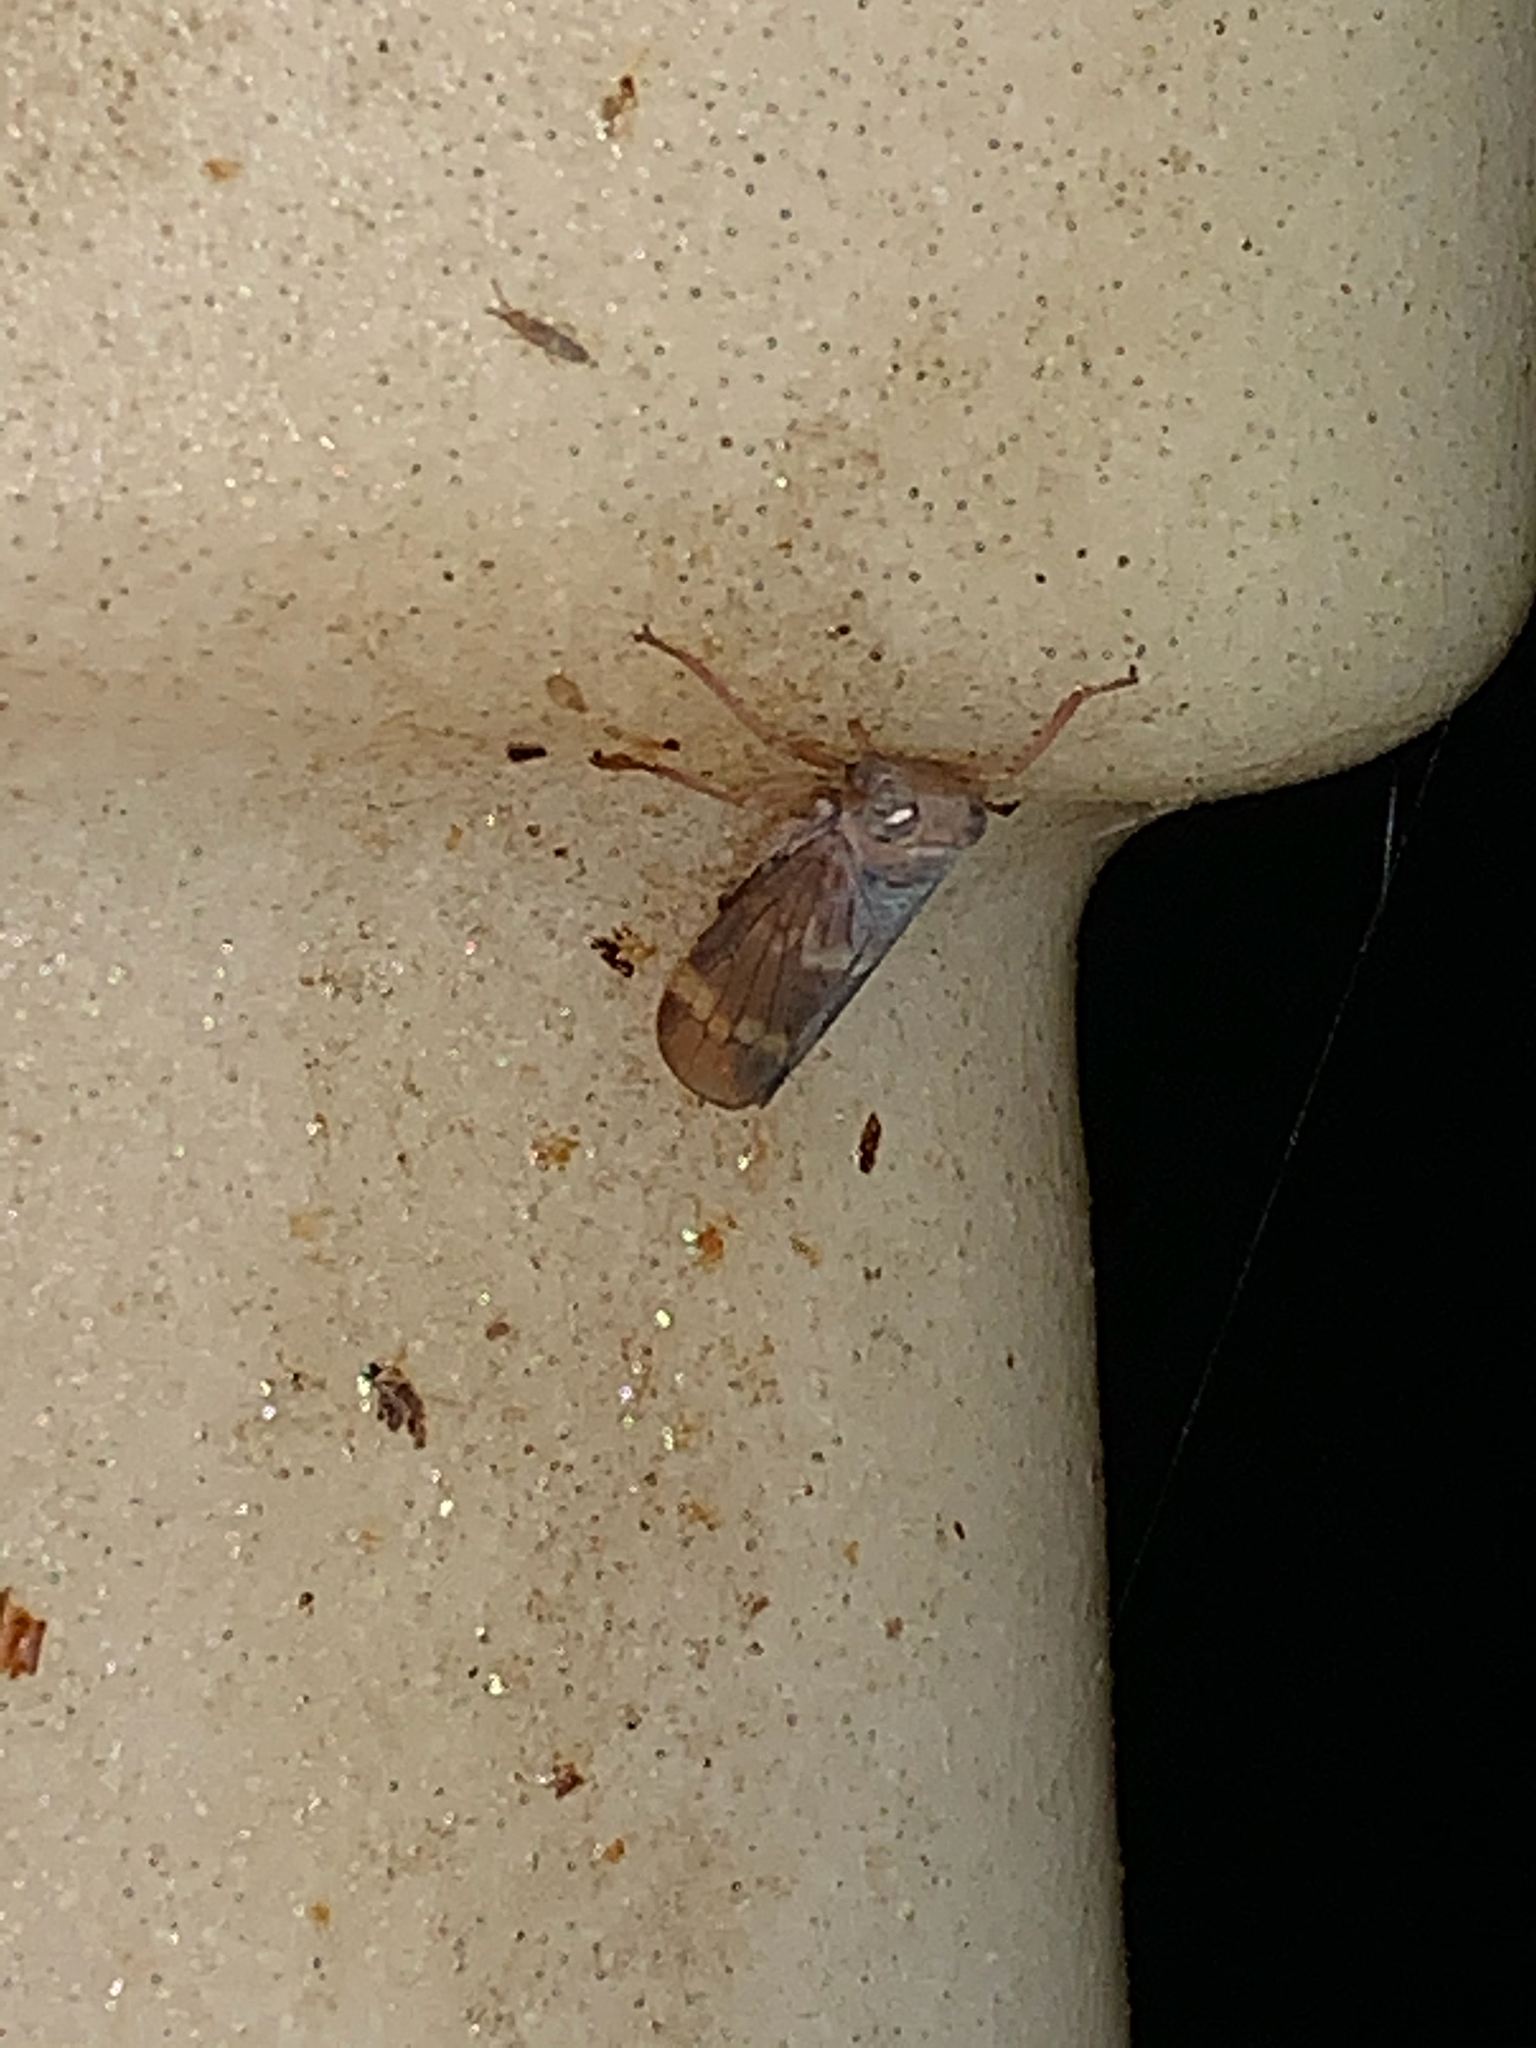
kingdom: Animalia
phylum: Arthropoda
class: Insecta
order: Hemiptera
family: Cicadellidae
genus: Jikradia
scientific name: Jikradia olitoria
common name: Coppery leafhopper
